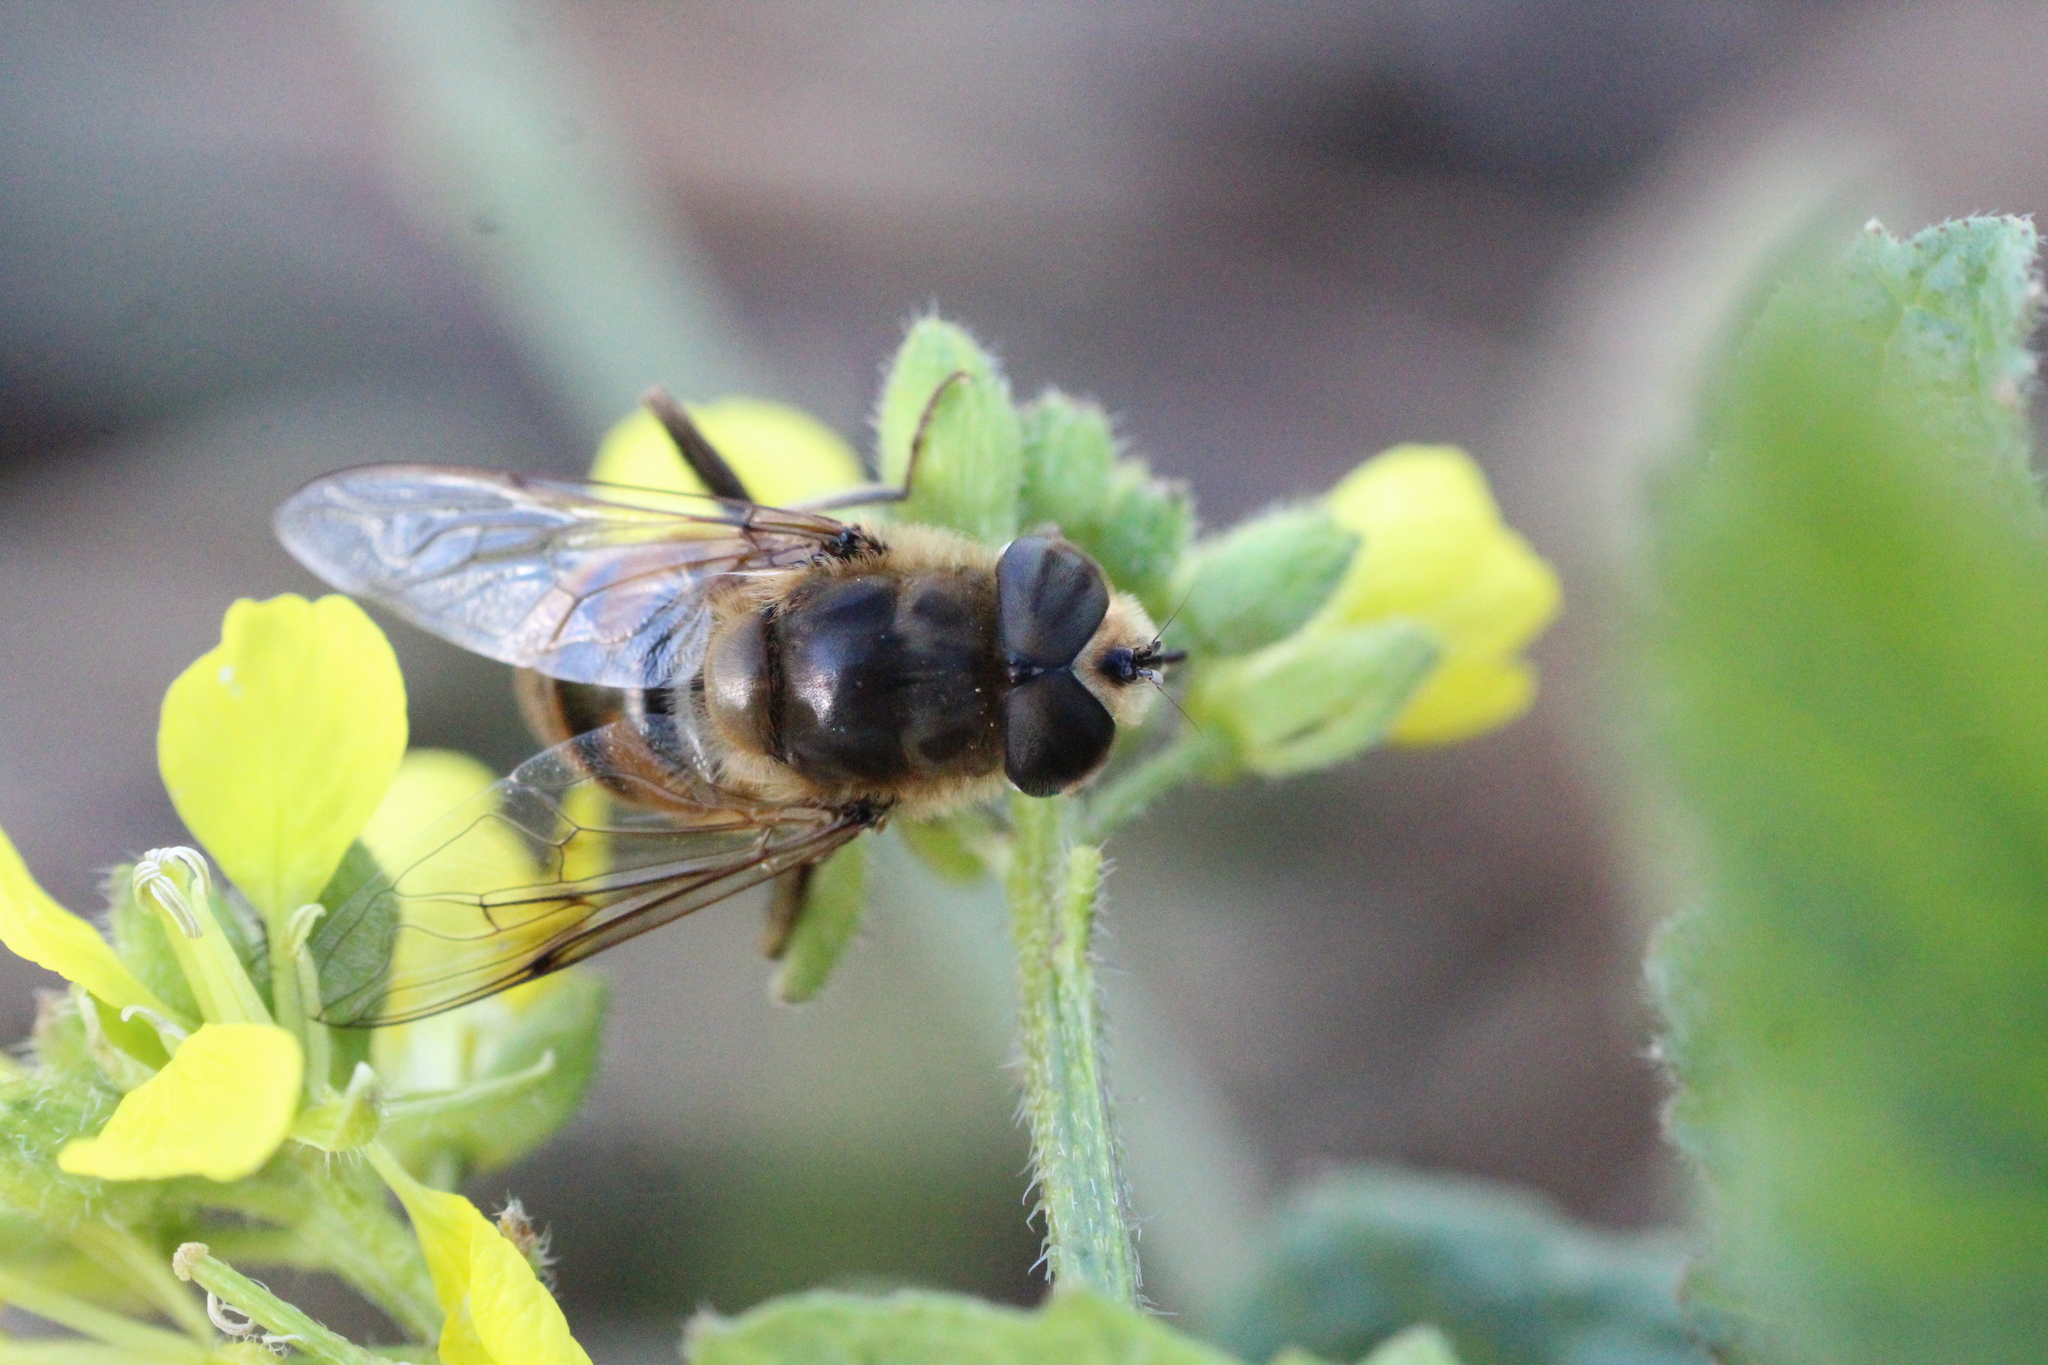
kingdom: Animalia
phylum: Arthropoda
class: Insecta
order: Diptera
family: Syrphidae
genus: Eristalis
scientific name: Eristalis tenax
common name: Drone fly
